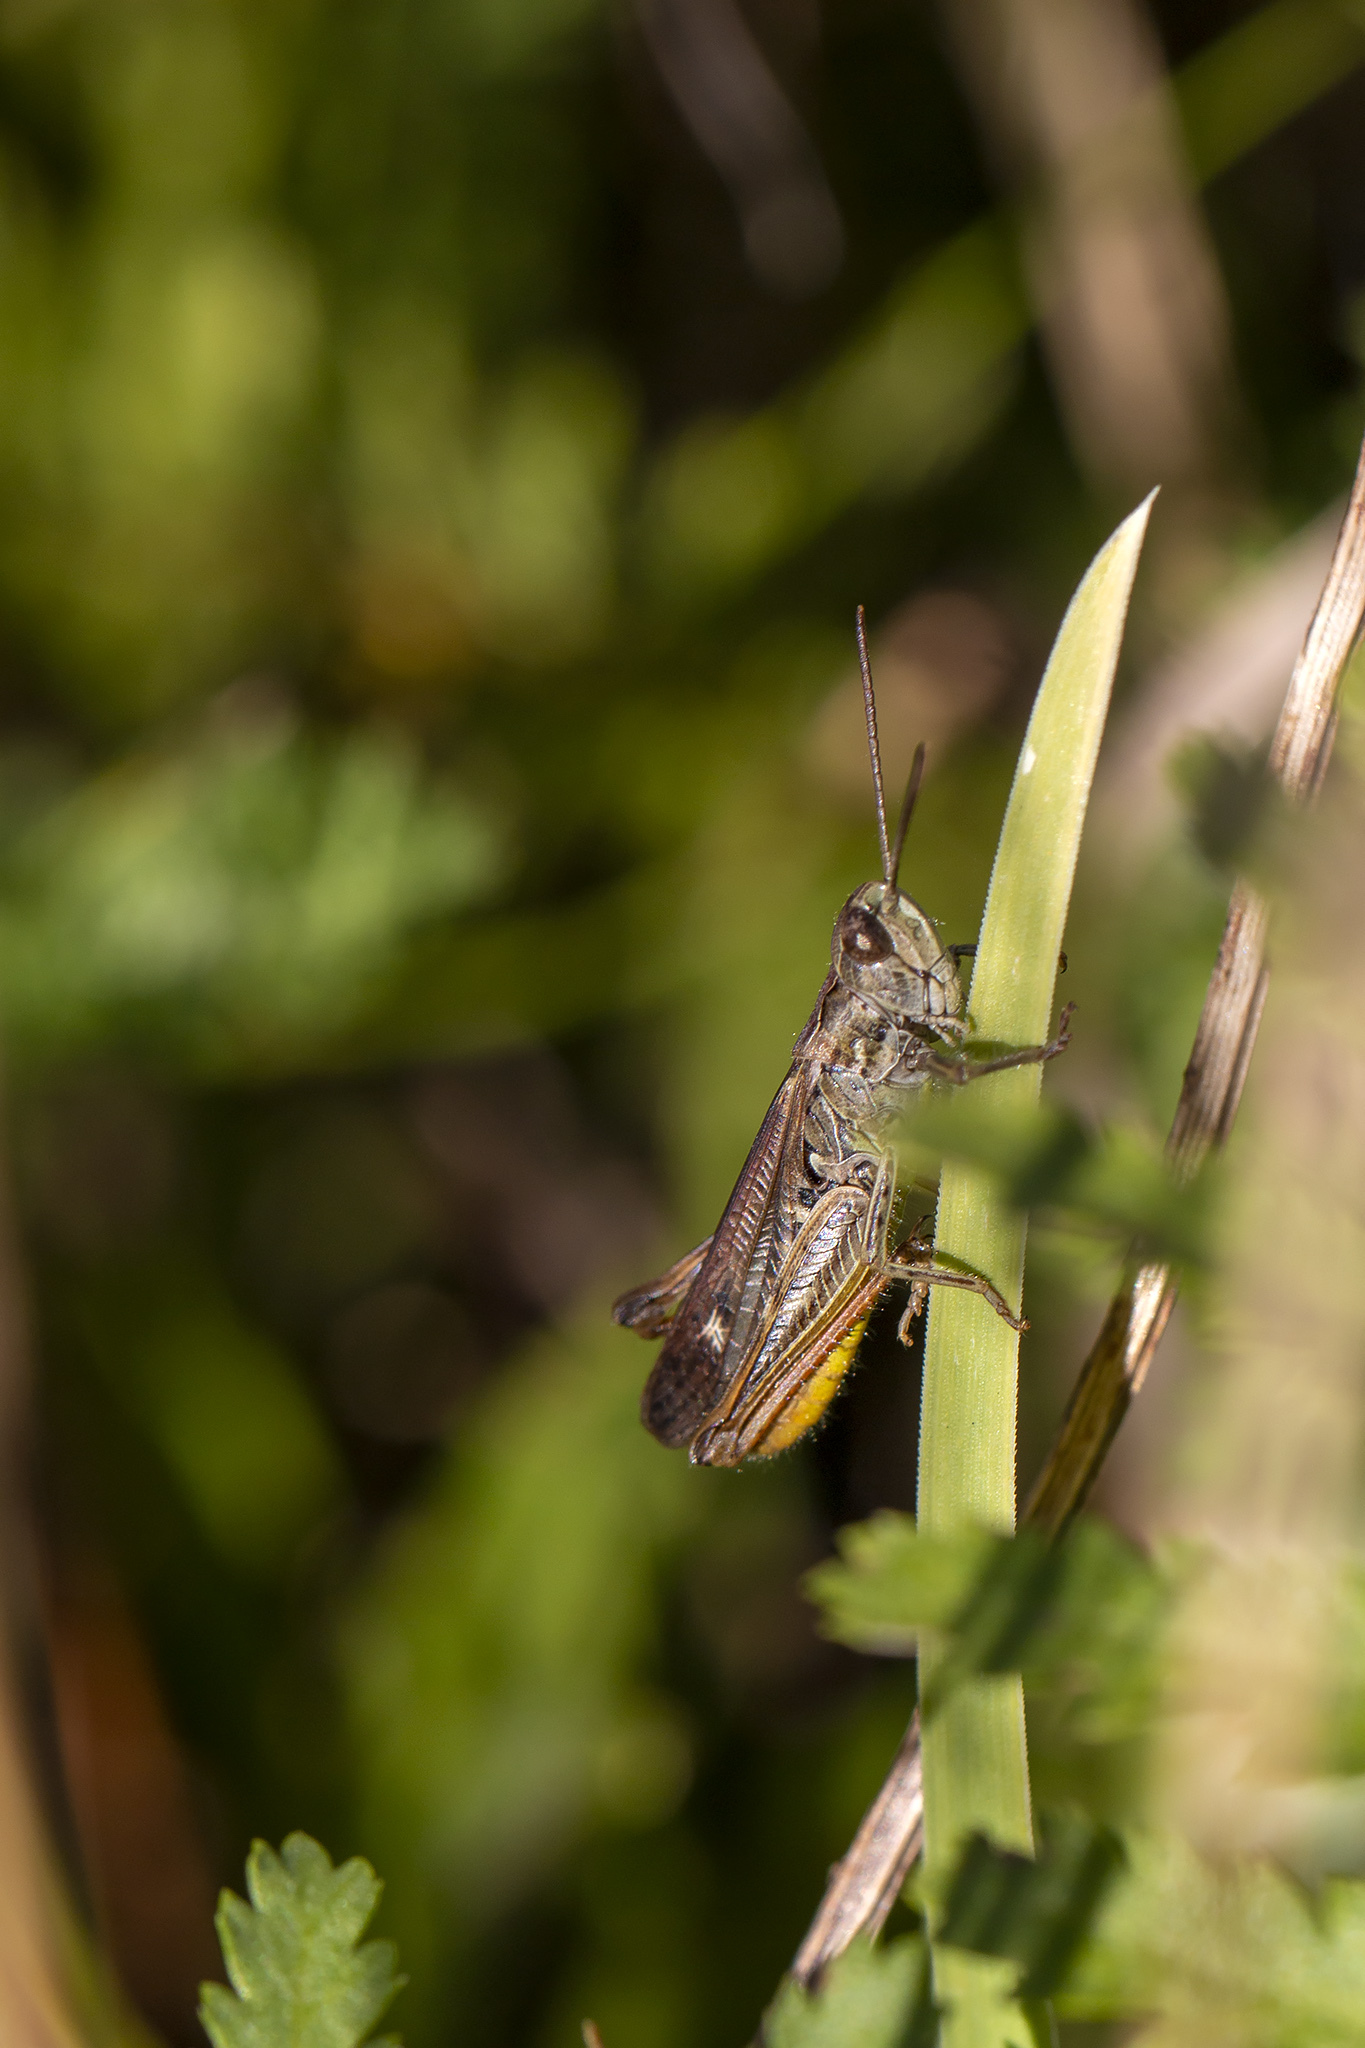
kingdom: Animalia
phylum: Arthropoda
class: Insecta
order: Orthoptera
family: Acrididae
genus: Chorthippus
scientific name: Chorthippus biguttulus
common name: Bow-winged grasshopper
